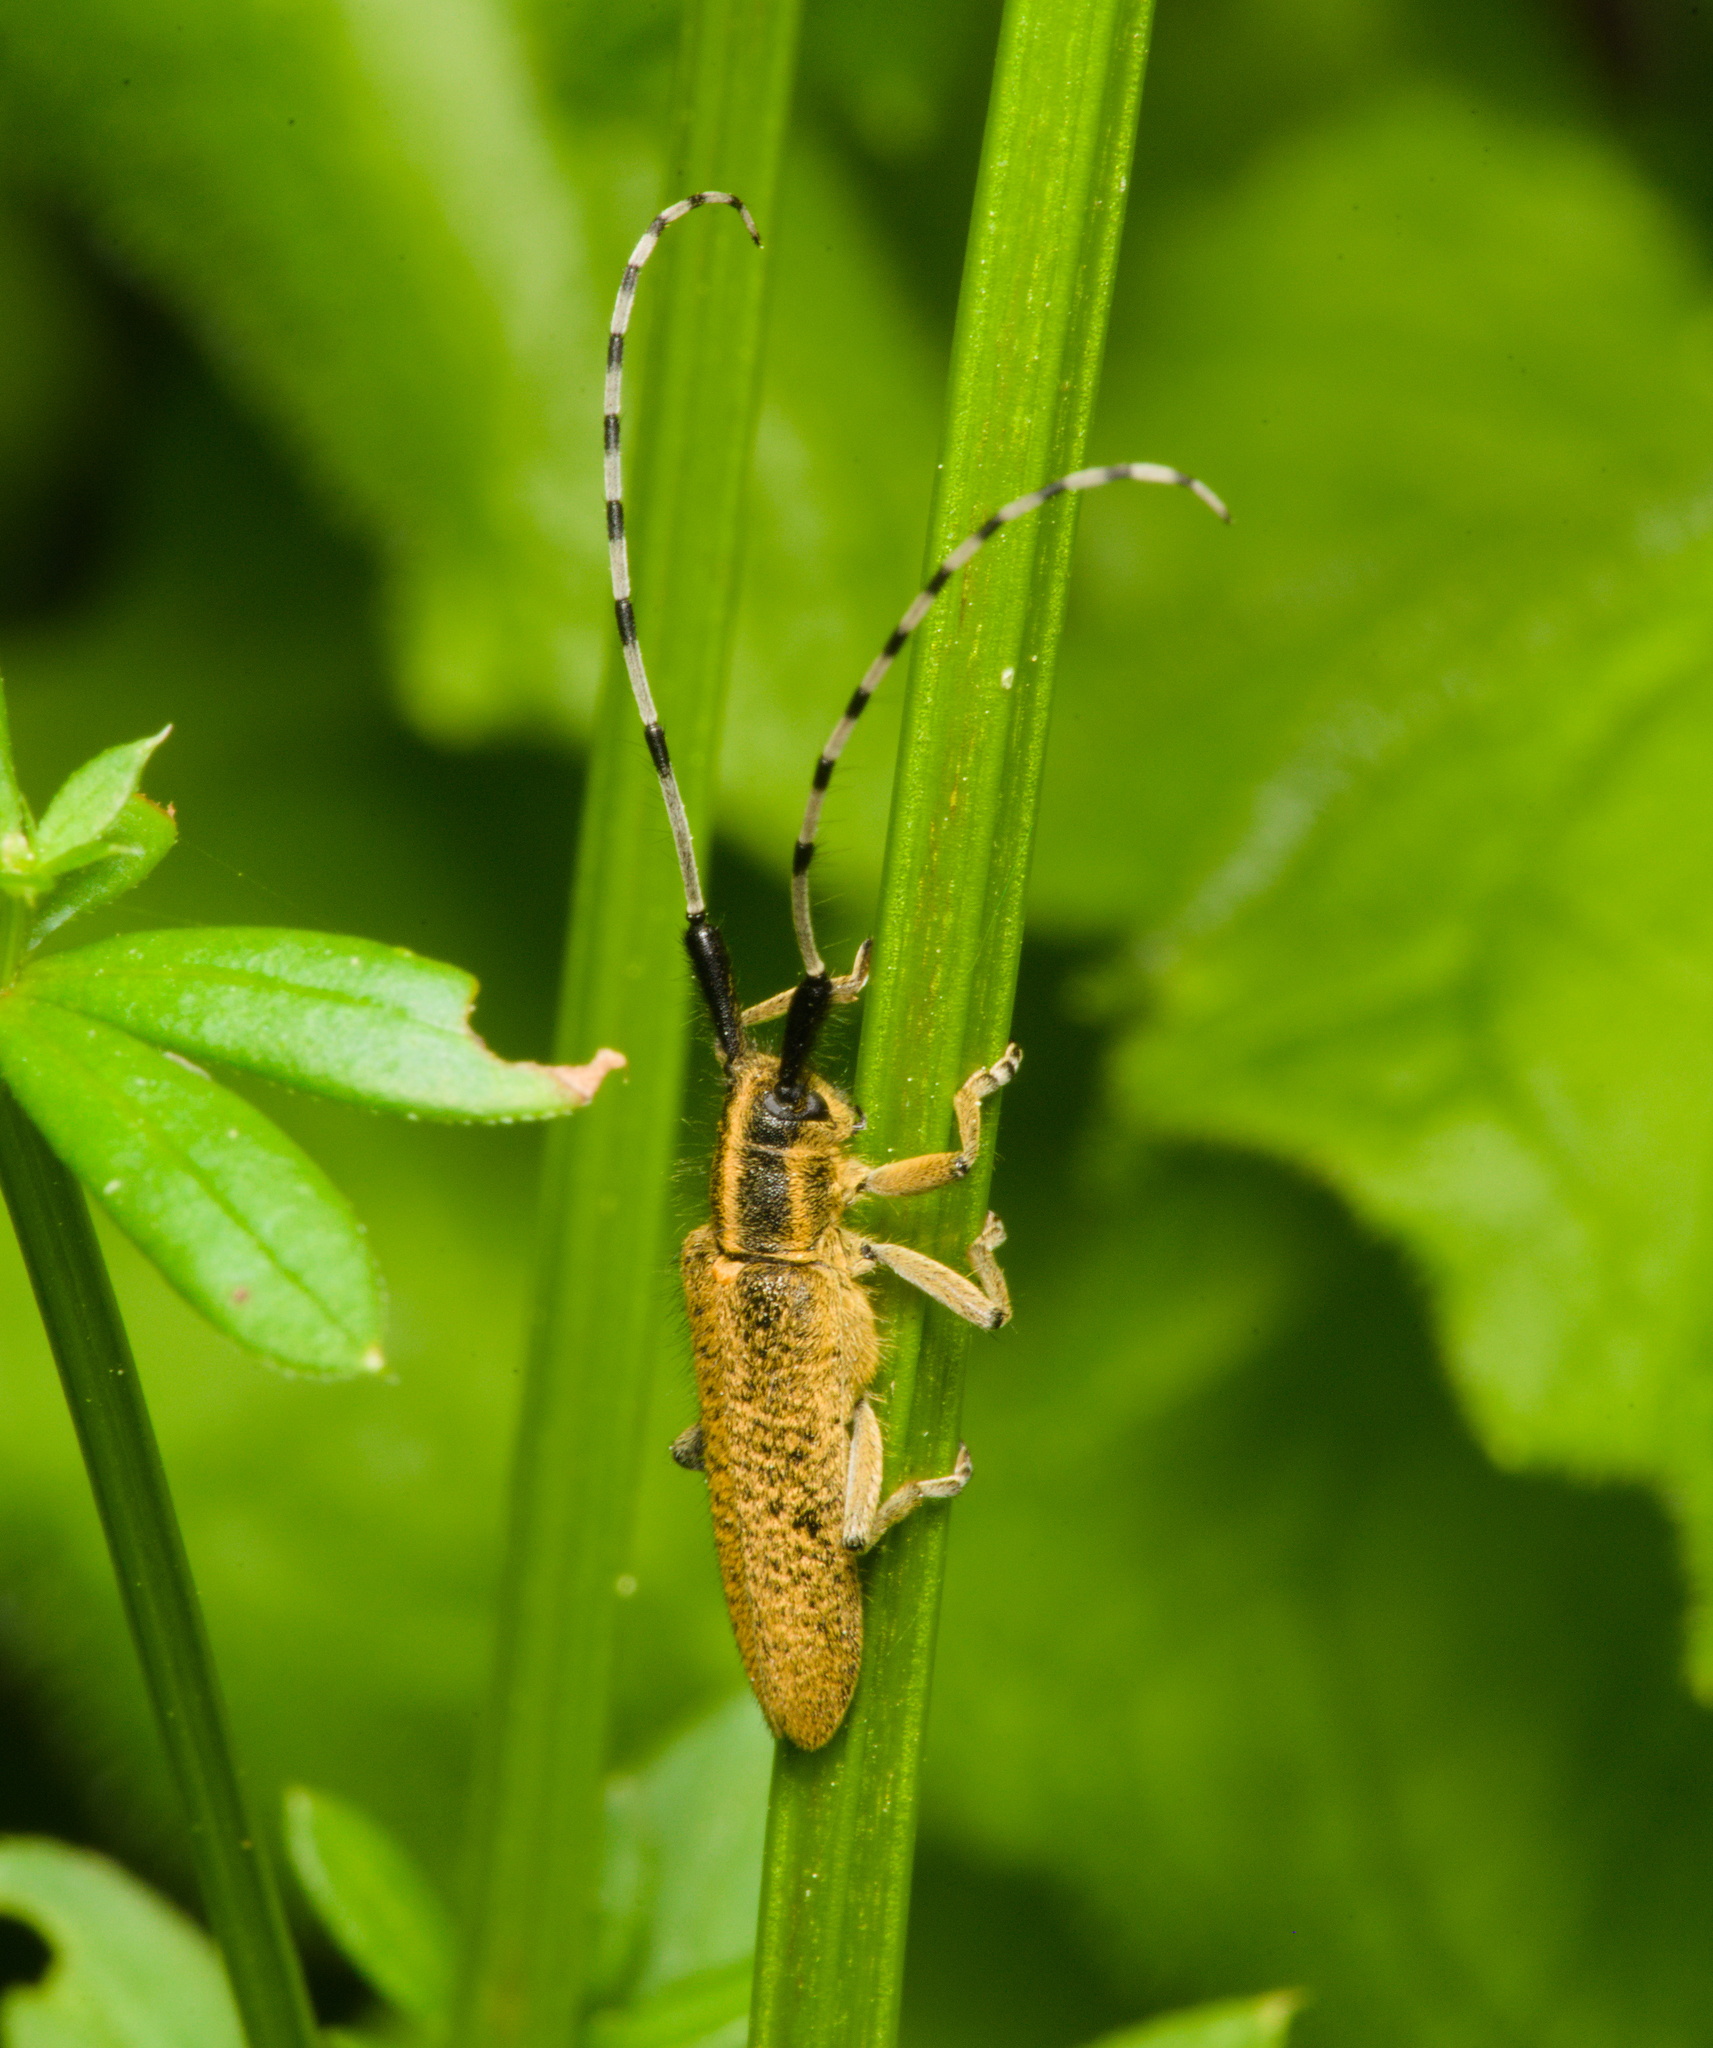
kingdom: Animalia
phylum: Arthropoda
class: Insecta
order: Coleoptera
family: Cerambycidae
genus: Agapanthia
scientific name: Agapanthia villosoviridescens
